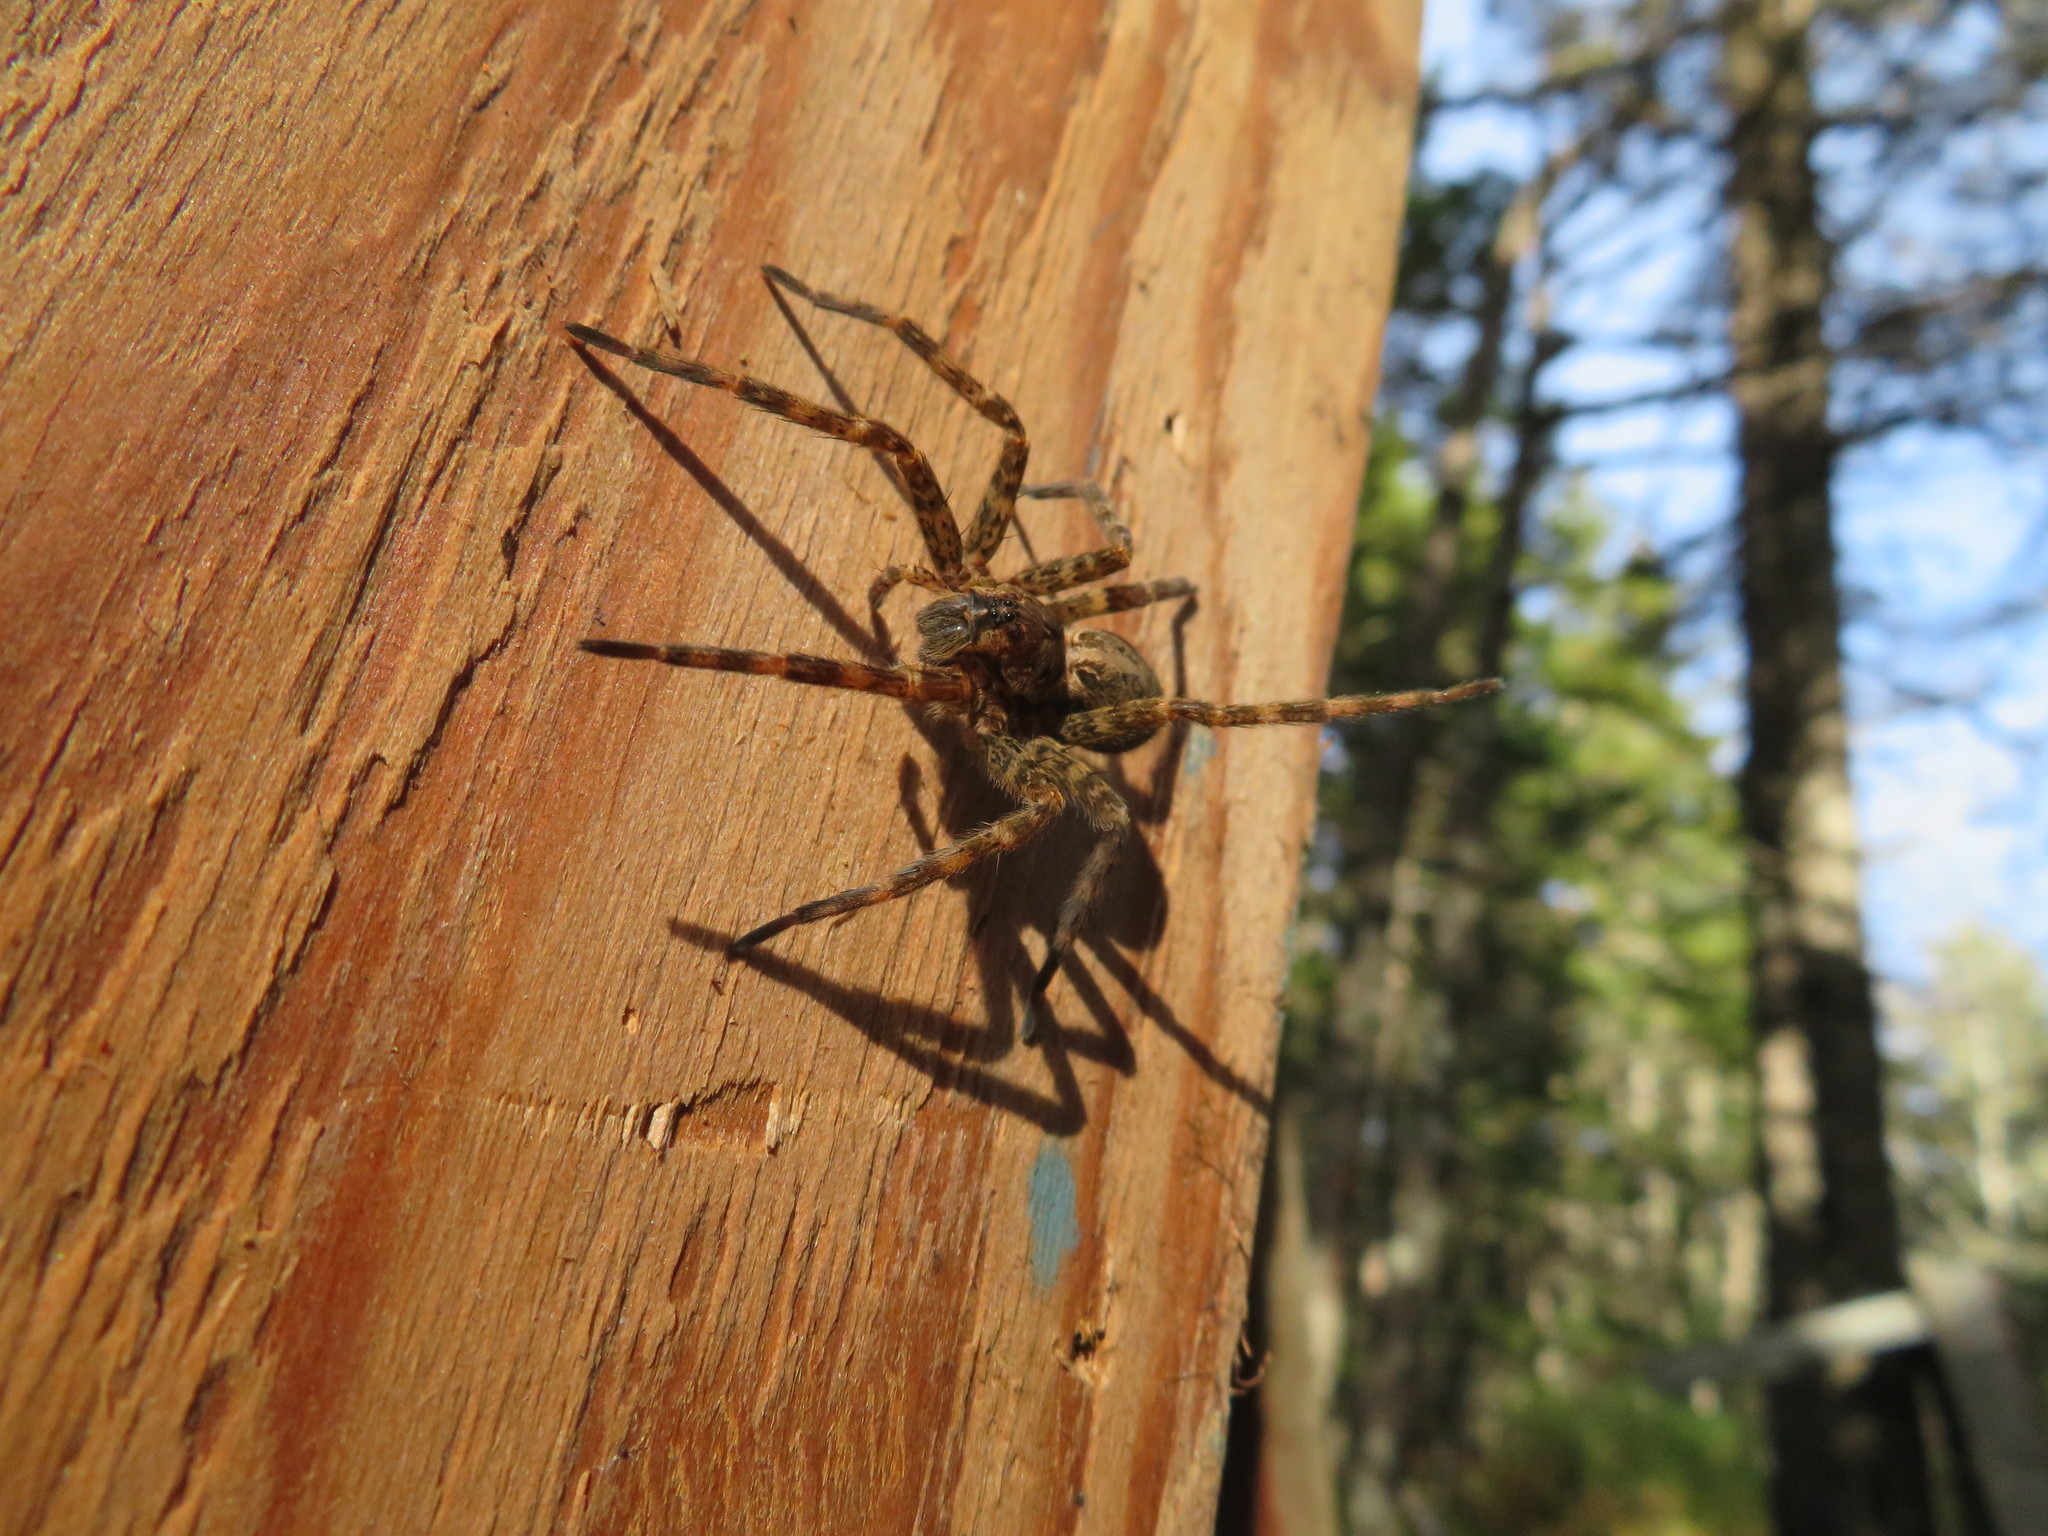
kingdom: Animalia
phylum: Arthropoda
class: Arachnida
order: Araneae
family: Pisauridae
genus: Dolomedes
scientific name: Dolomedes tenebrosus
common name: Dark fishing spider
